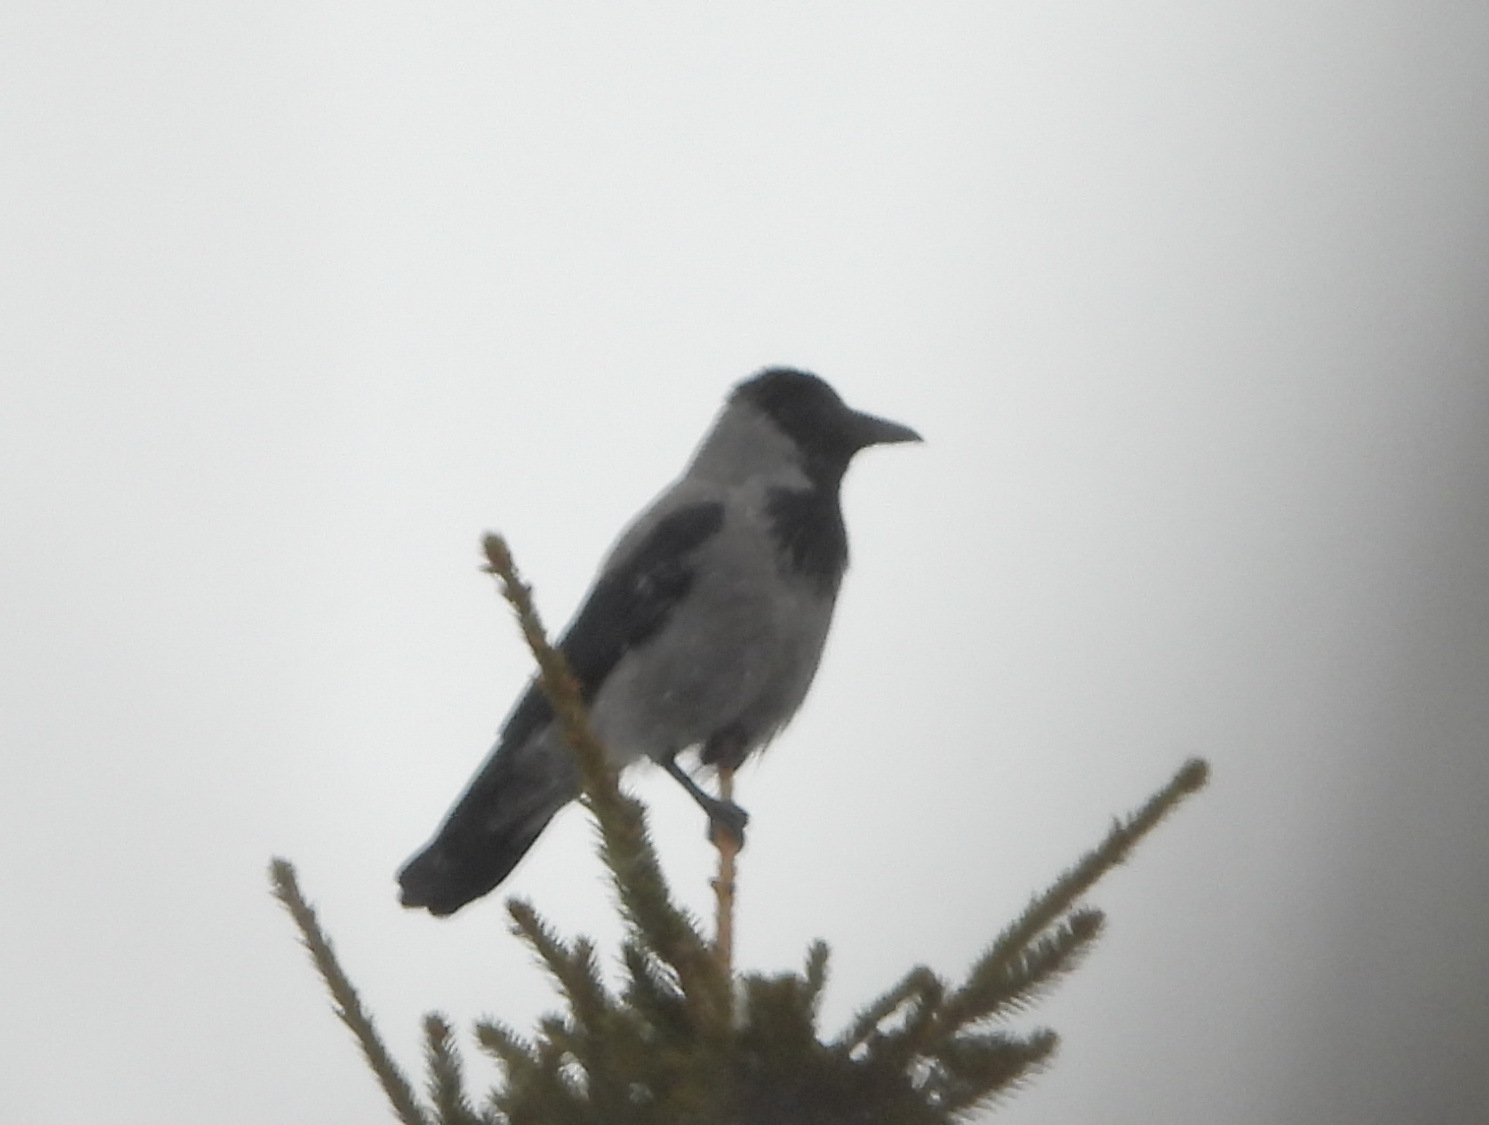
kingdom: Animalia
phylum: Chordata
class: Aves
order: Passeriformes
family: Corvidae
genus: Corvus
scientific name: Corvus cornix
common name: Hooded crow
